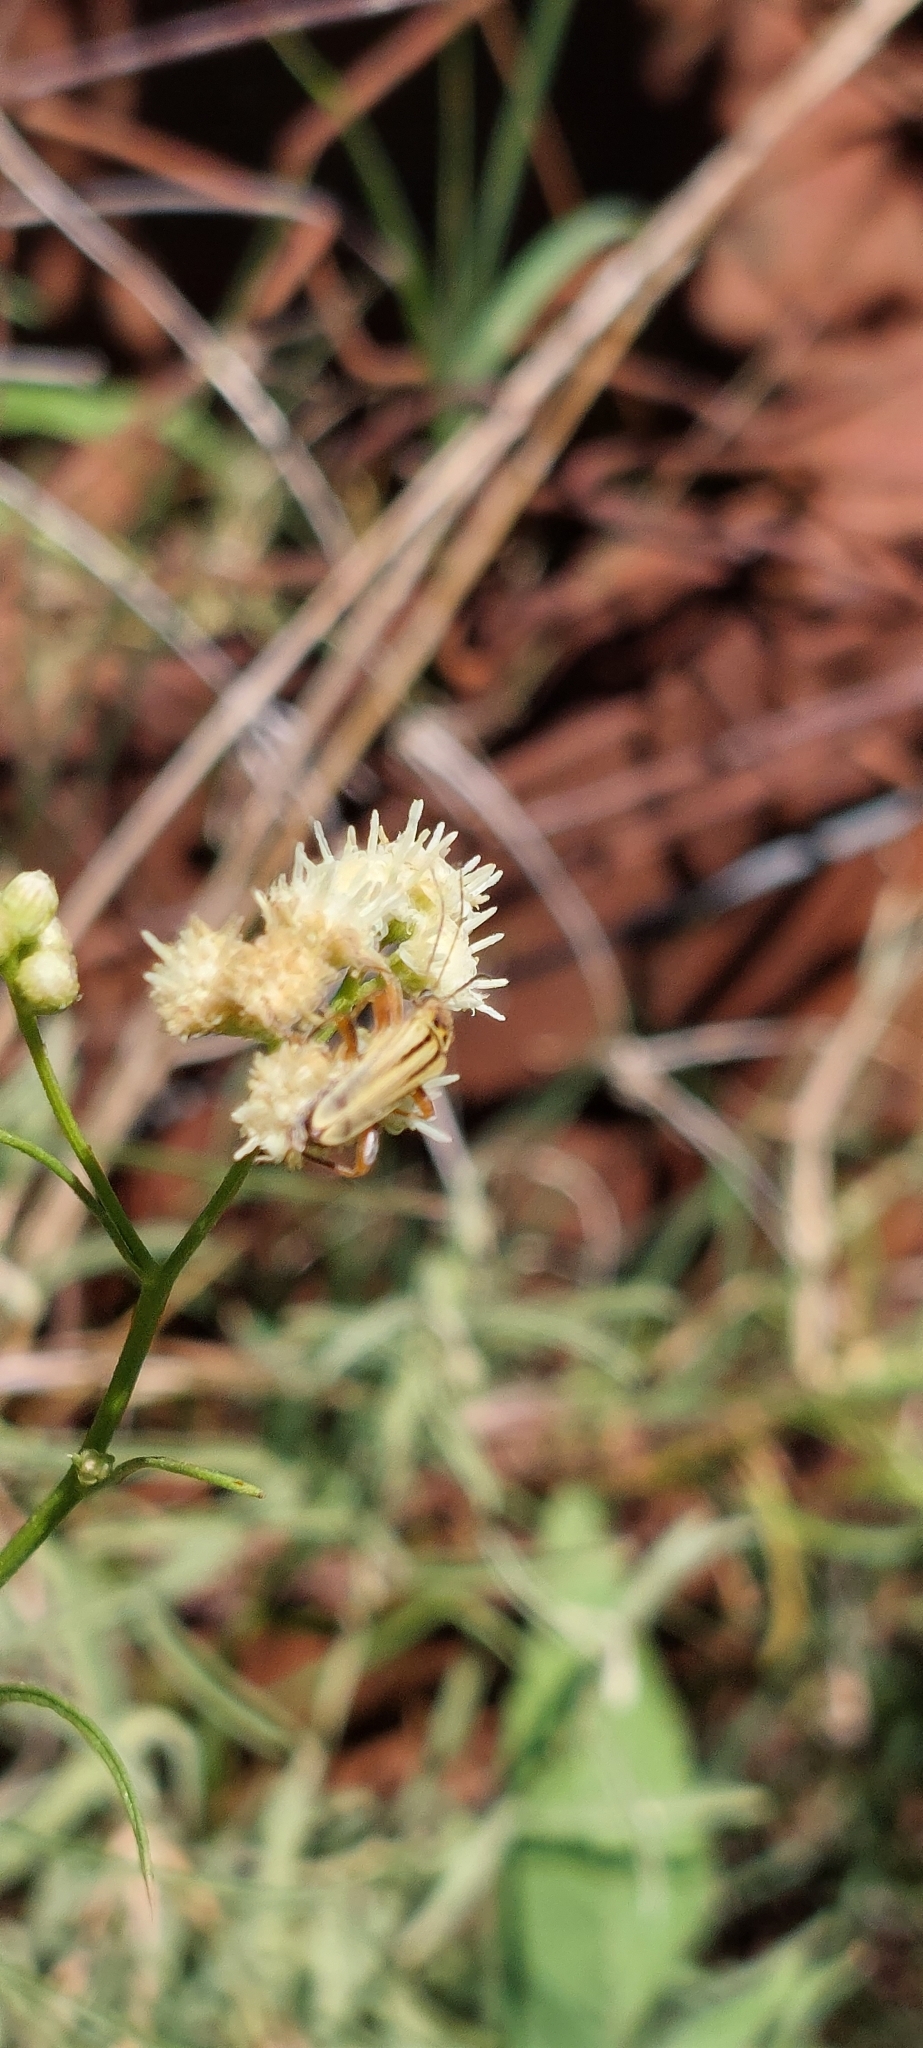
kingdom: Animalia
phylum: Arthropoda
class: Insecta
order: Coleoptera
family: Cantharidae
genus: Chauliognathus
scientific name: Chauliognathus
